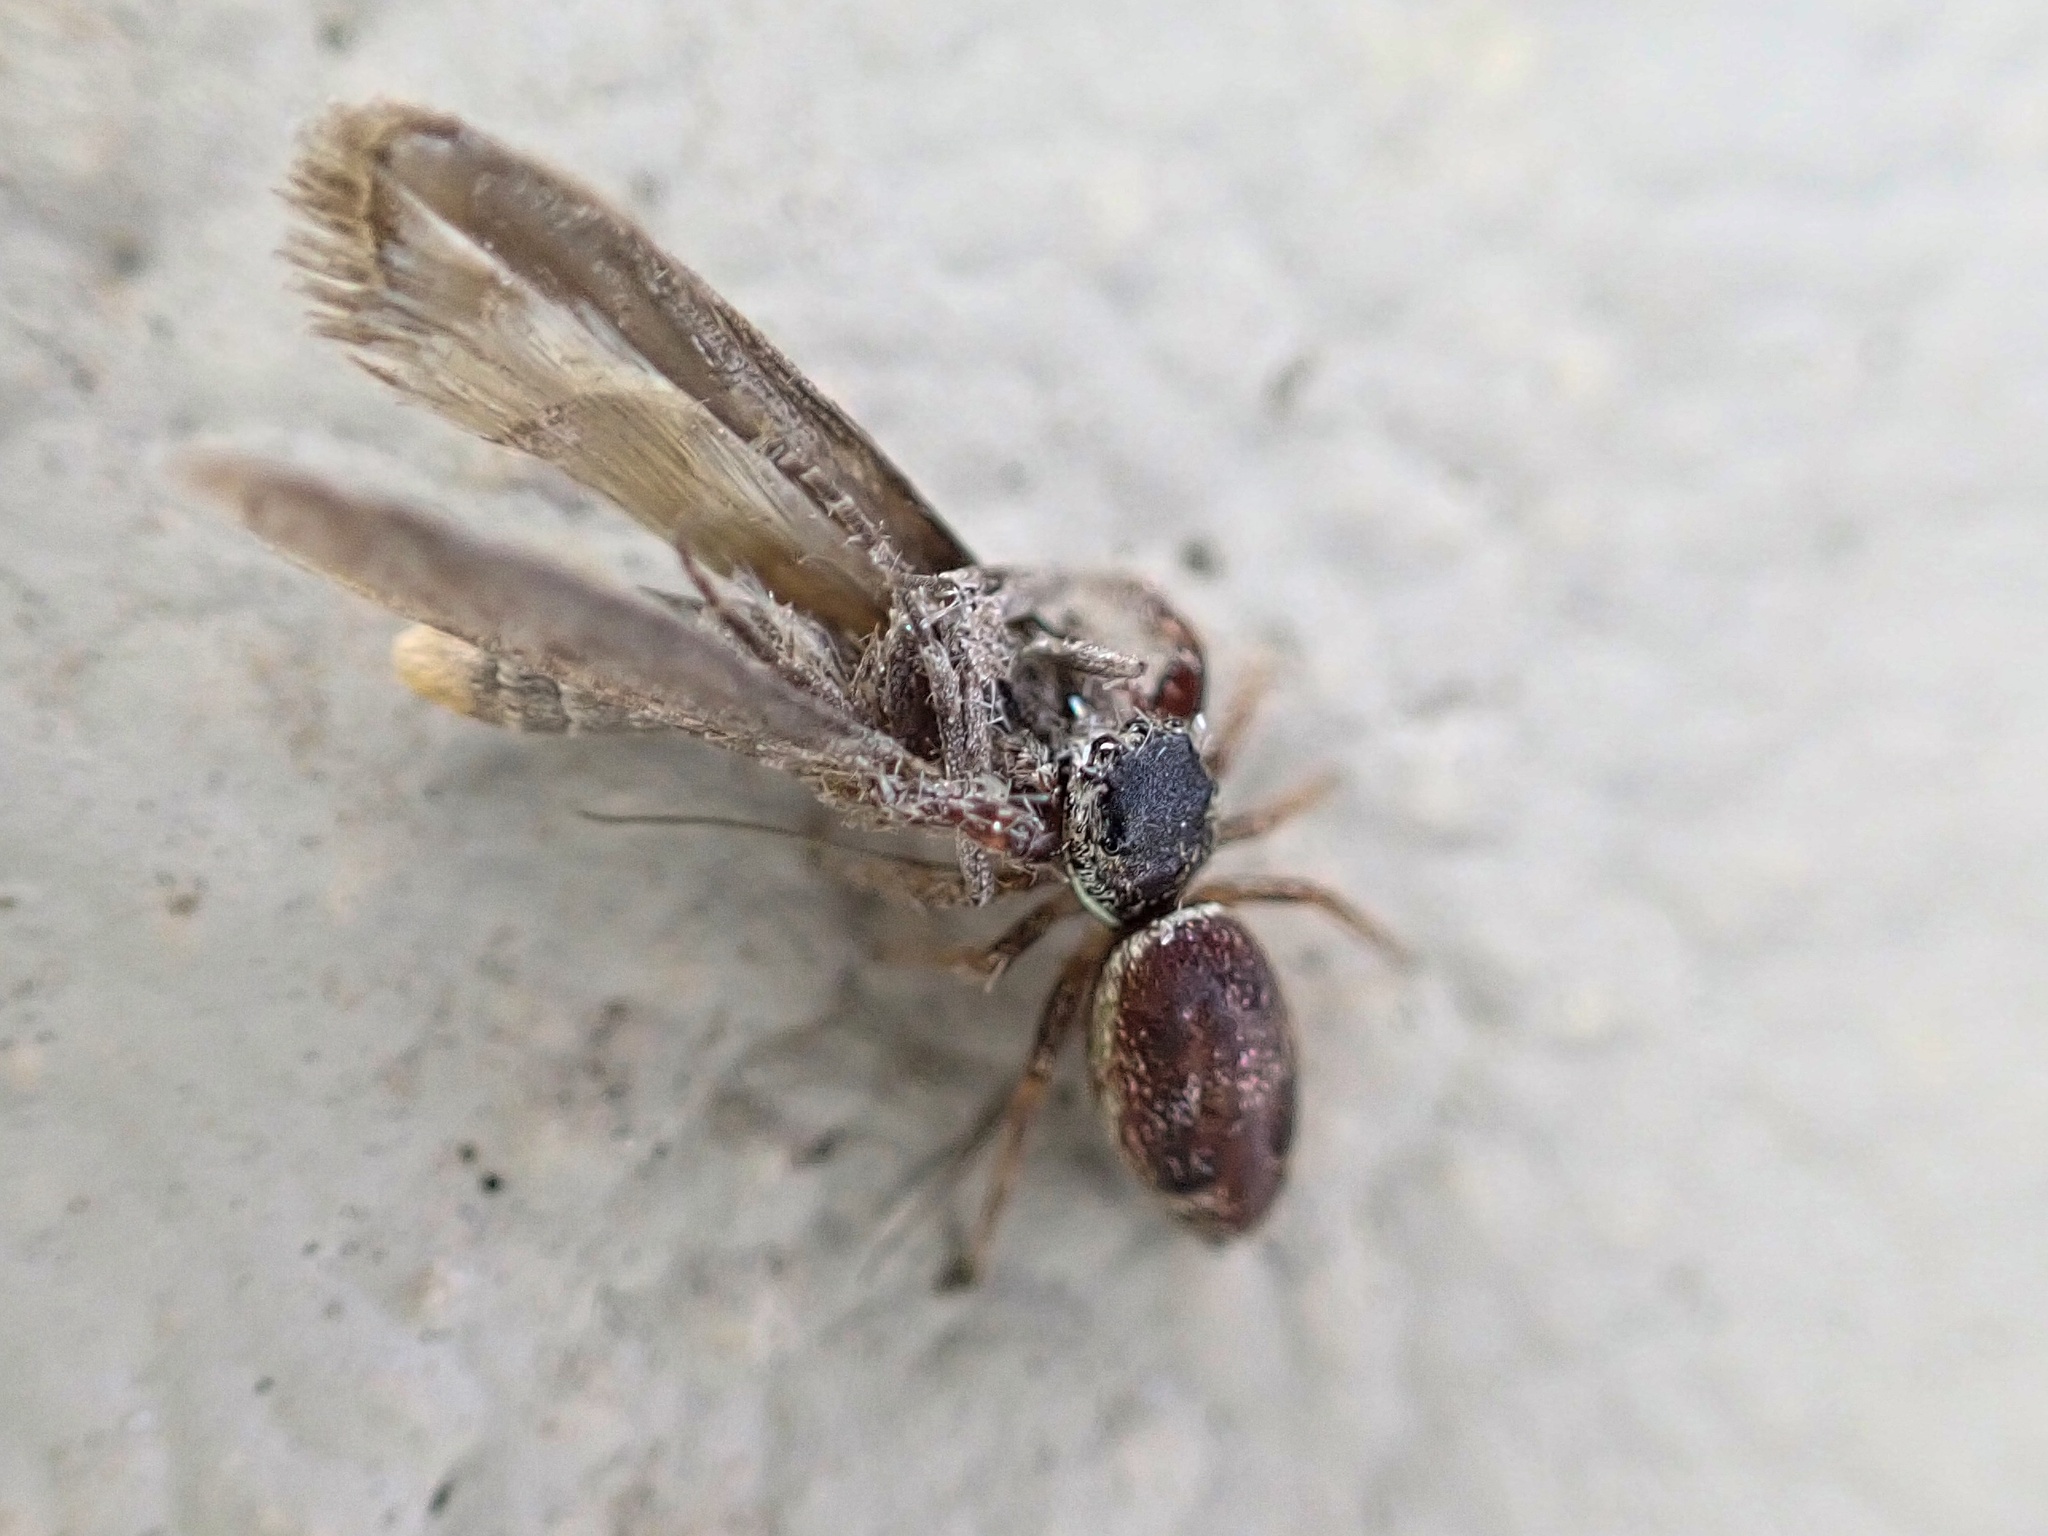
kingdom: Animalia
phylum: Arthropoda
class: Arachnida
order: Araneae
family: Salticidae
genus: Sassacus
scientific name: Sassacus vitis
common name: Jumping spiders
